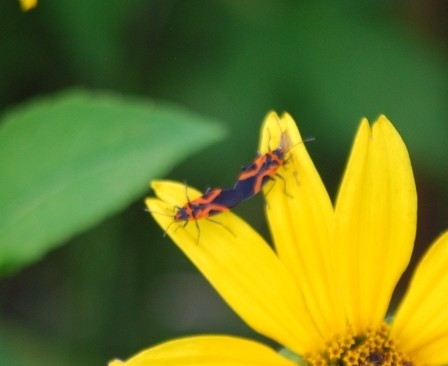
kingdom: Animalia
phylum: Arthropoda
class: Insecta
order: Hemiptera
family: Lygaeidae
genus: Lygaeus
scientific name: Lygaeus turcicus
